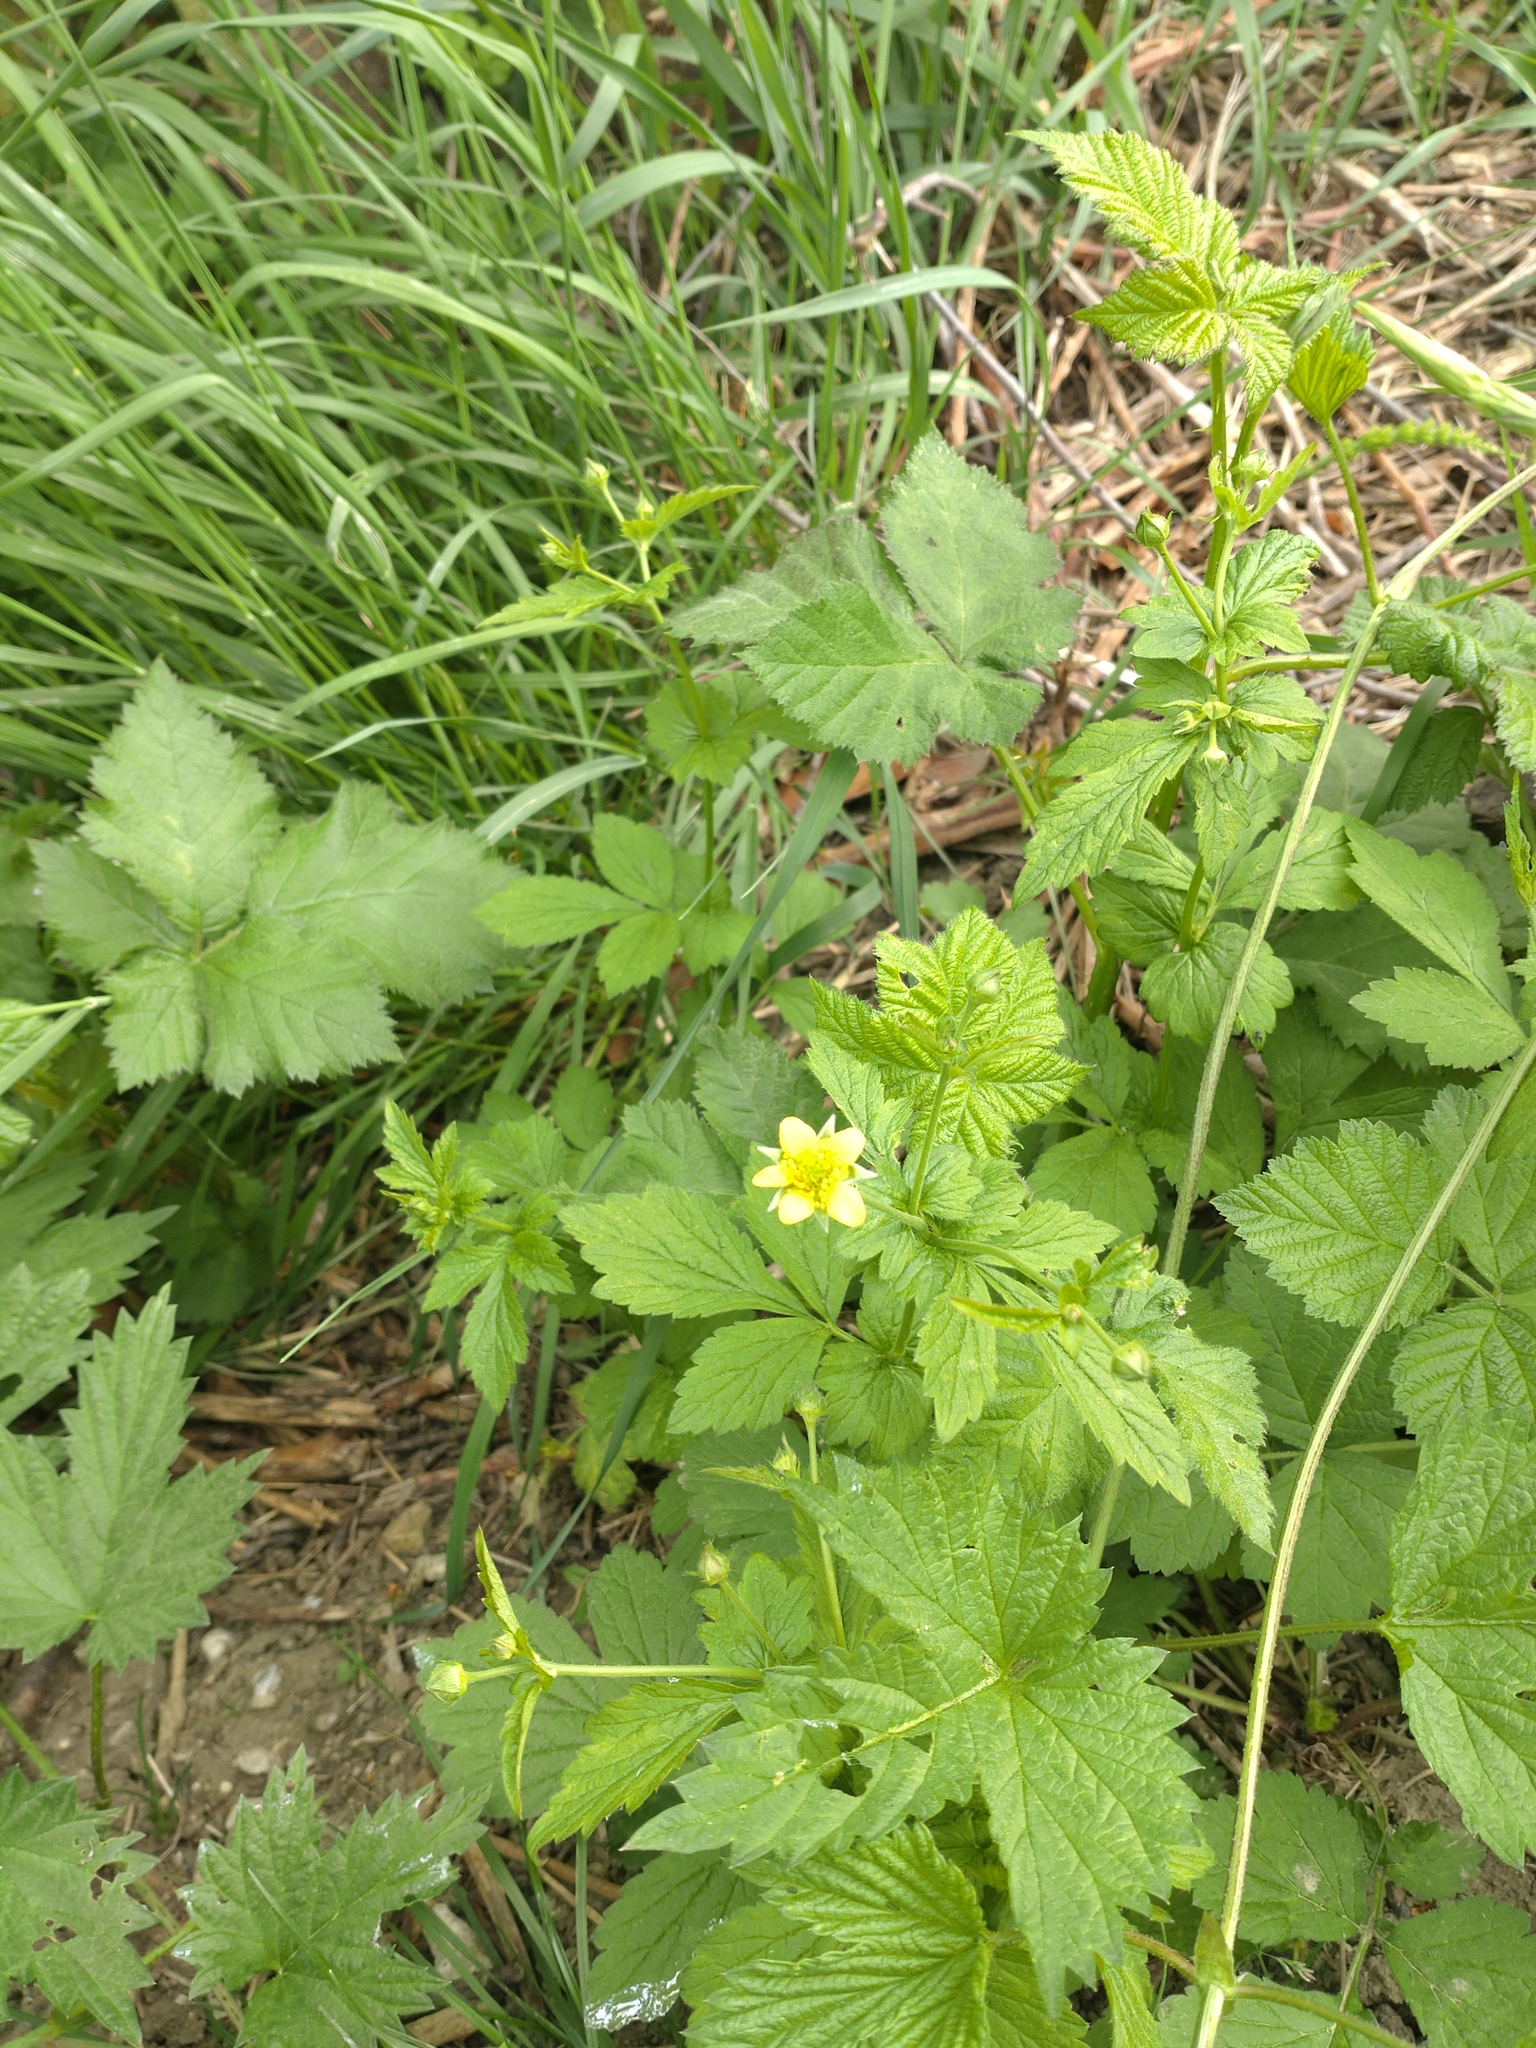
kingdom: Plantae
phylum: Tracheophyta
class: Magnoliopsida
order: Rosales
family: Rosaceae
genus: Geum
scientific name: Geum urbanum
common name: Wood avens
